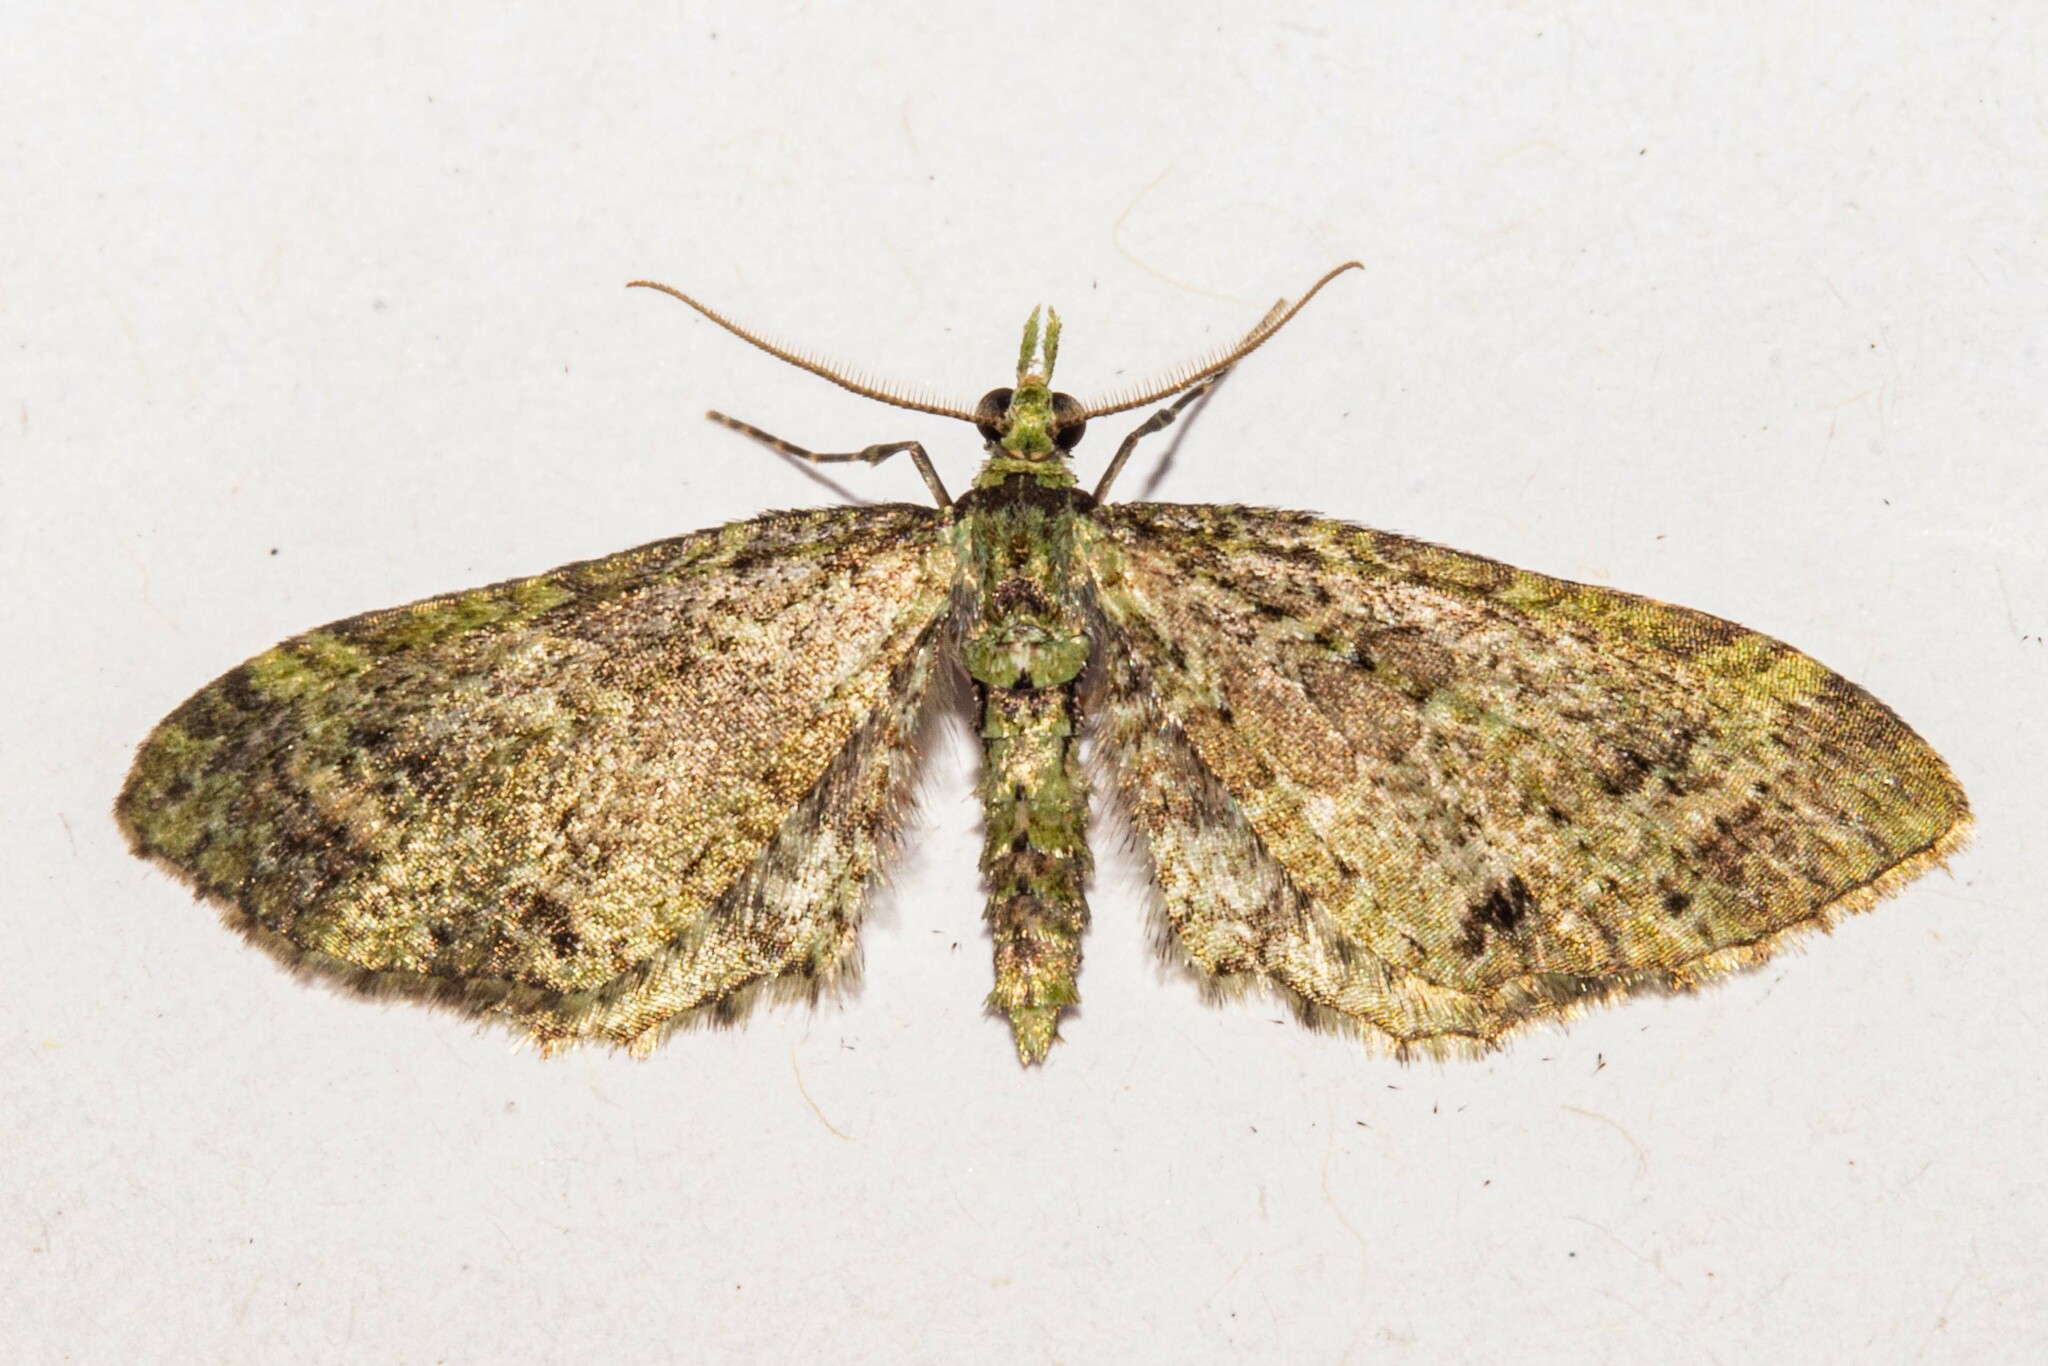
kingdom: Animalia
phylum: Arthropoda
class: Insecta
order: Lepidoptera
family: Geometridae
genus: Pasiphila
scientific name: Pasiphila cotinaea
